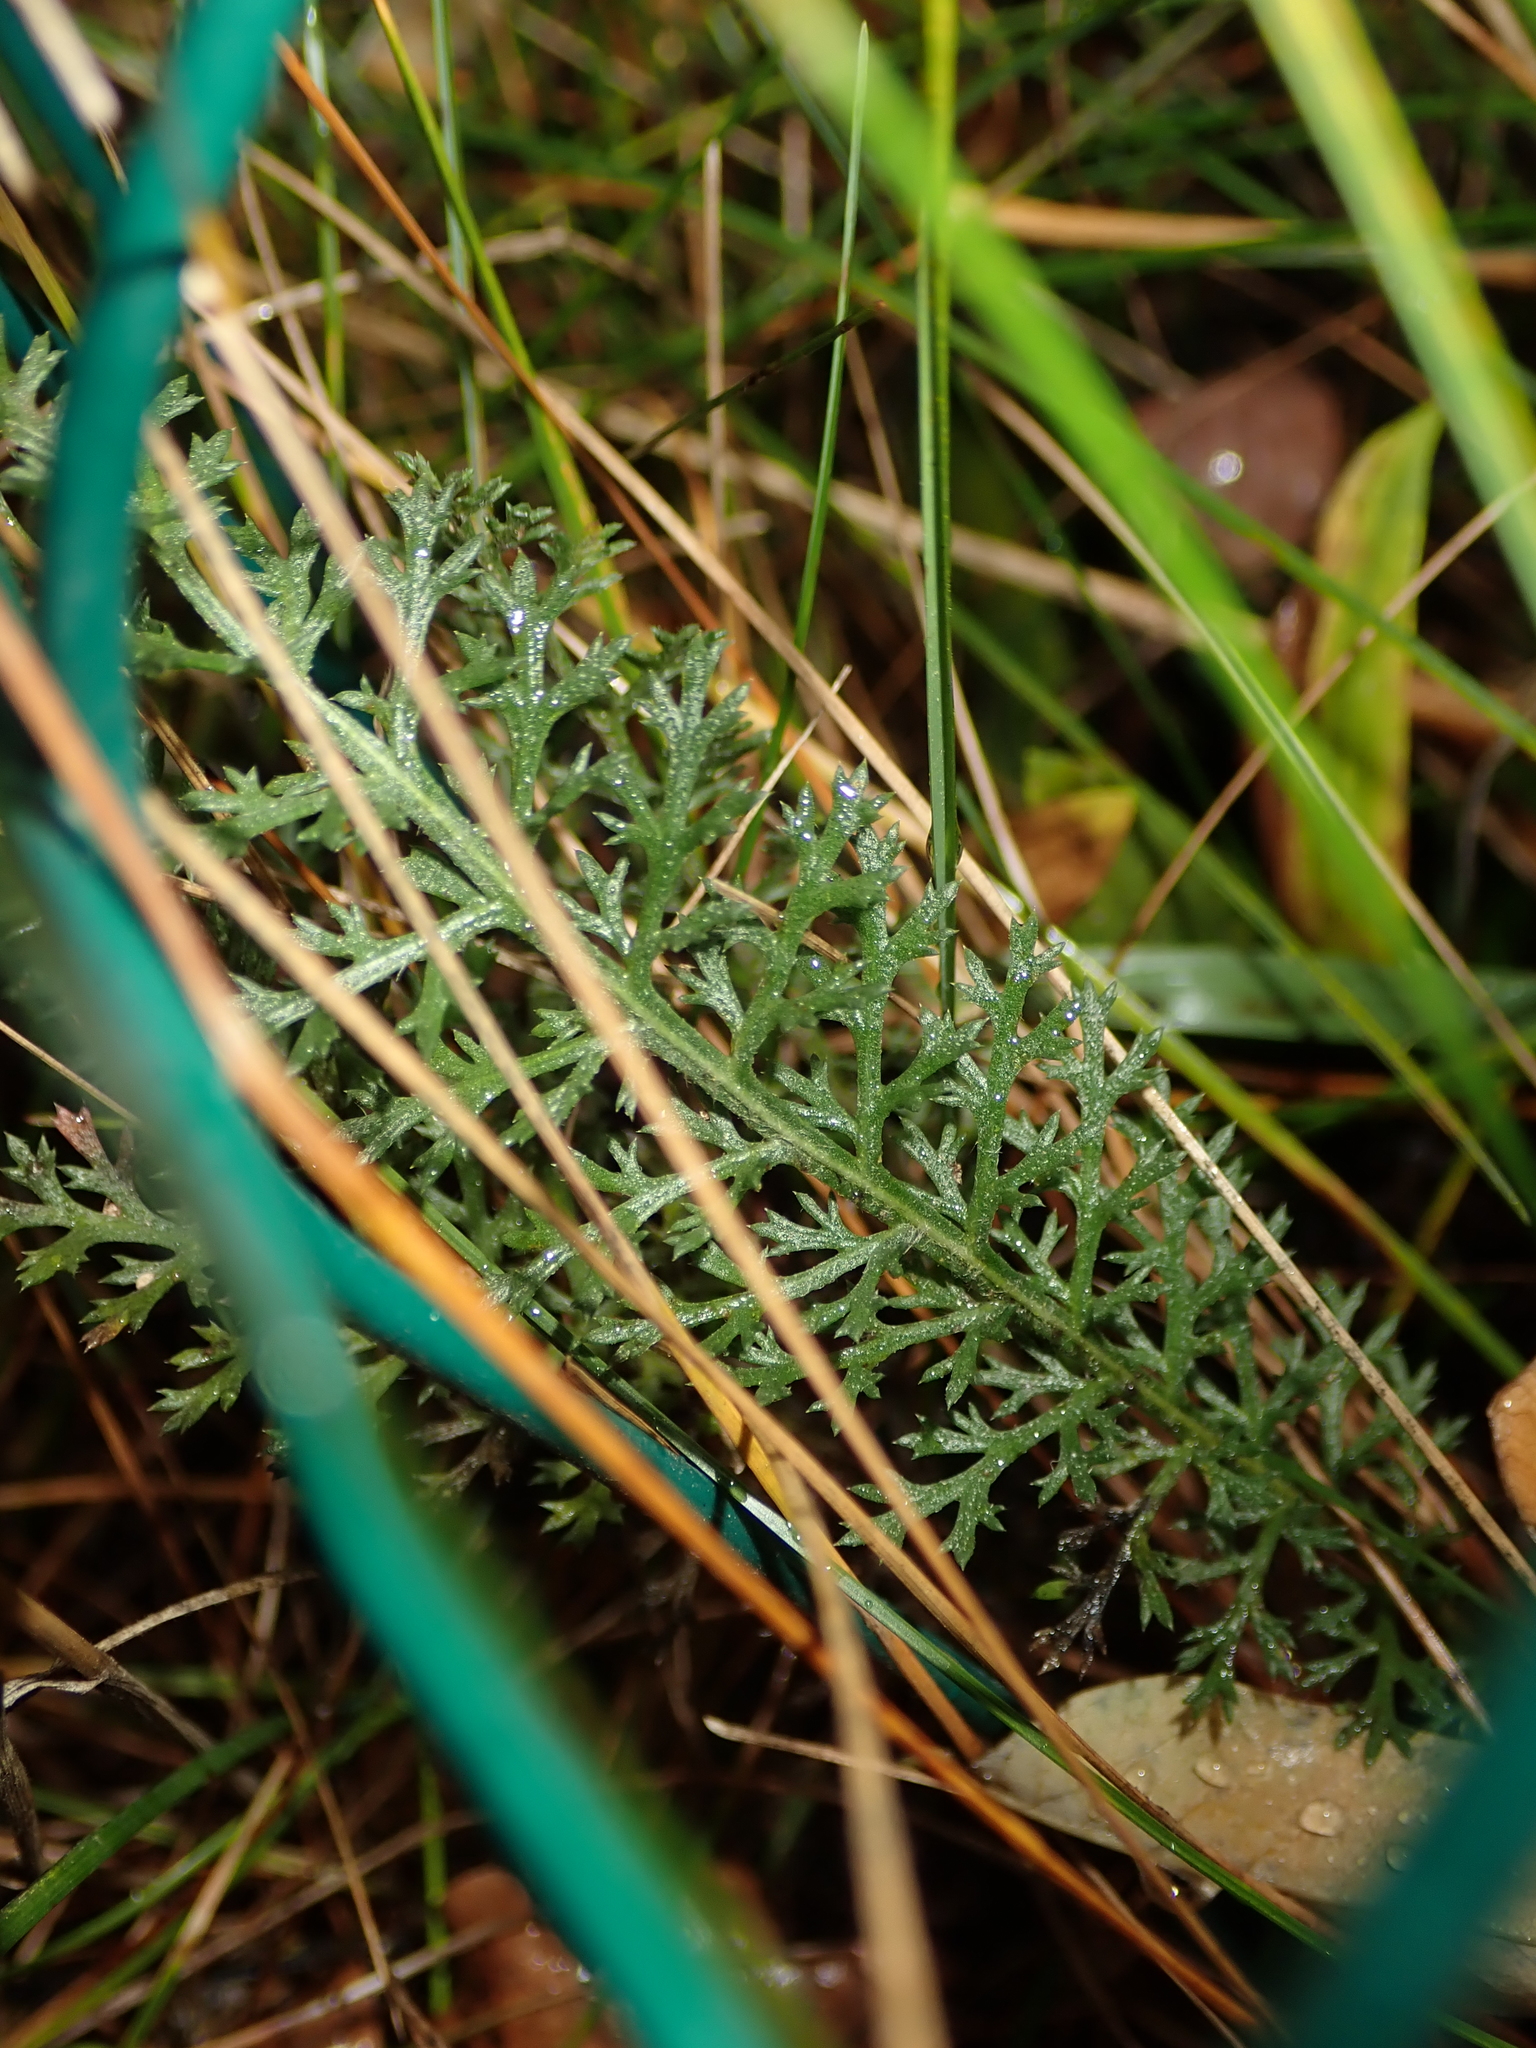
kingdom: Plantae
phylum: Tracheophyta
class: Magnoliopsida
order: Asterales
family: Asteraceae
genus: Achillea
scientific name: Achillea millefolium
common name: Yarrow
